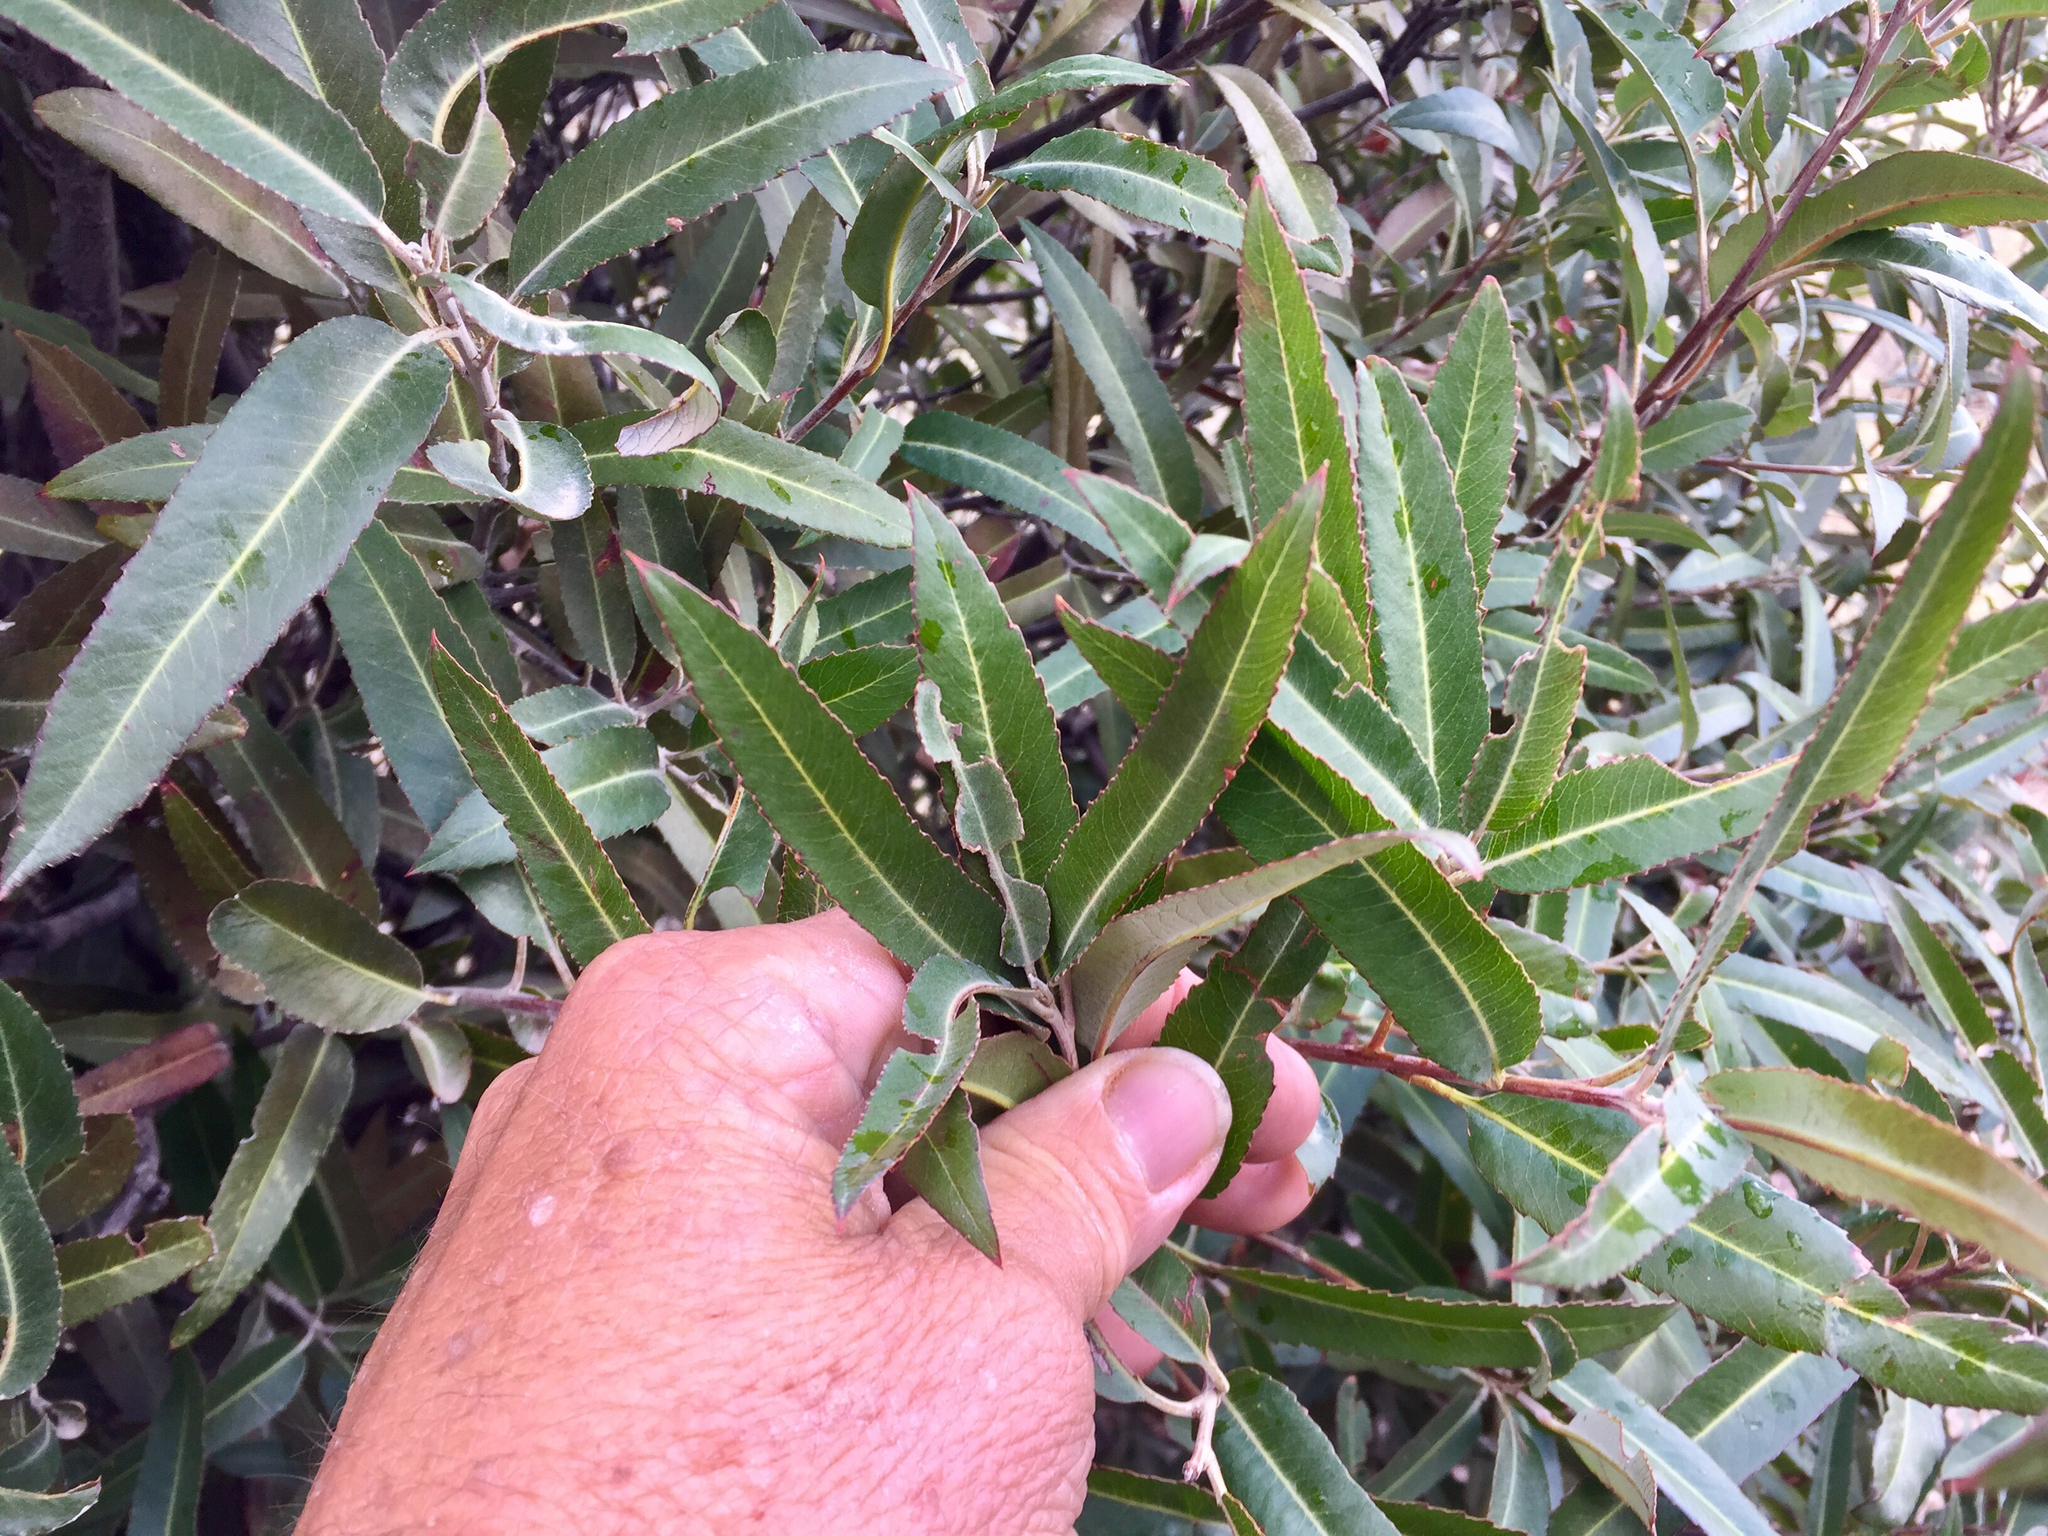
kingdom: Plantae
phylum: Tracheophyta
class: Magnoliopsida
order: Rosales
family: Rosaceae
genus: Vauquelinia
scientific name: Vauquelinia californica
